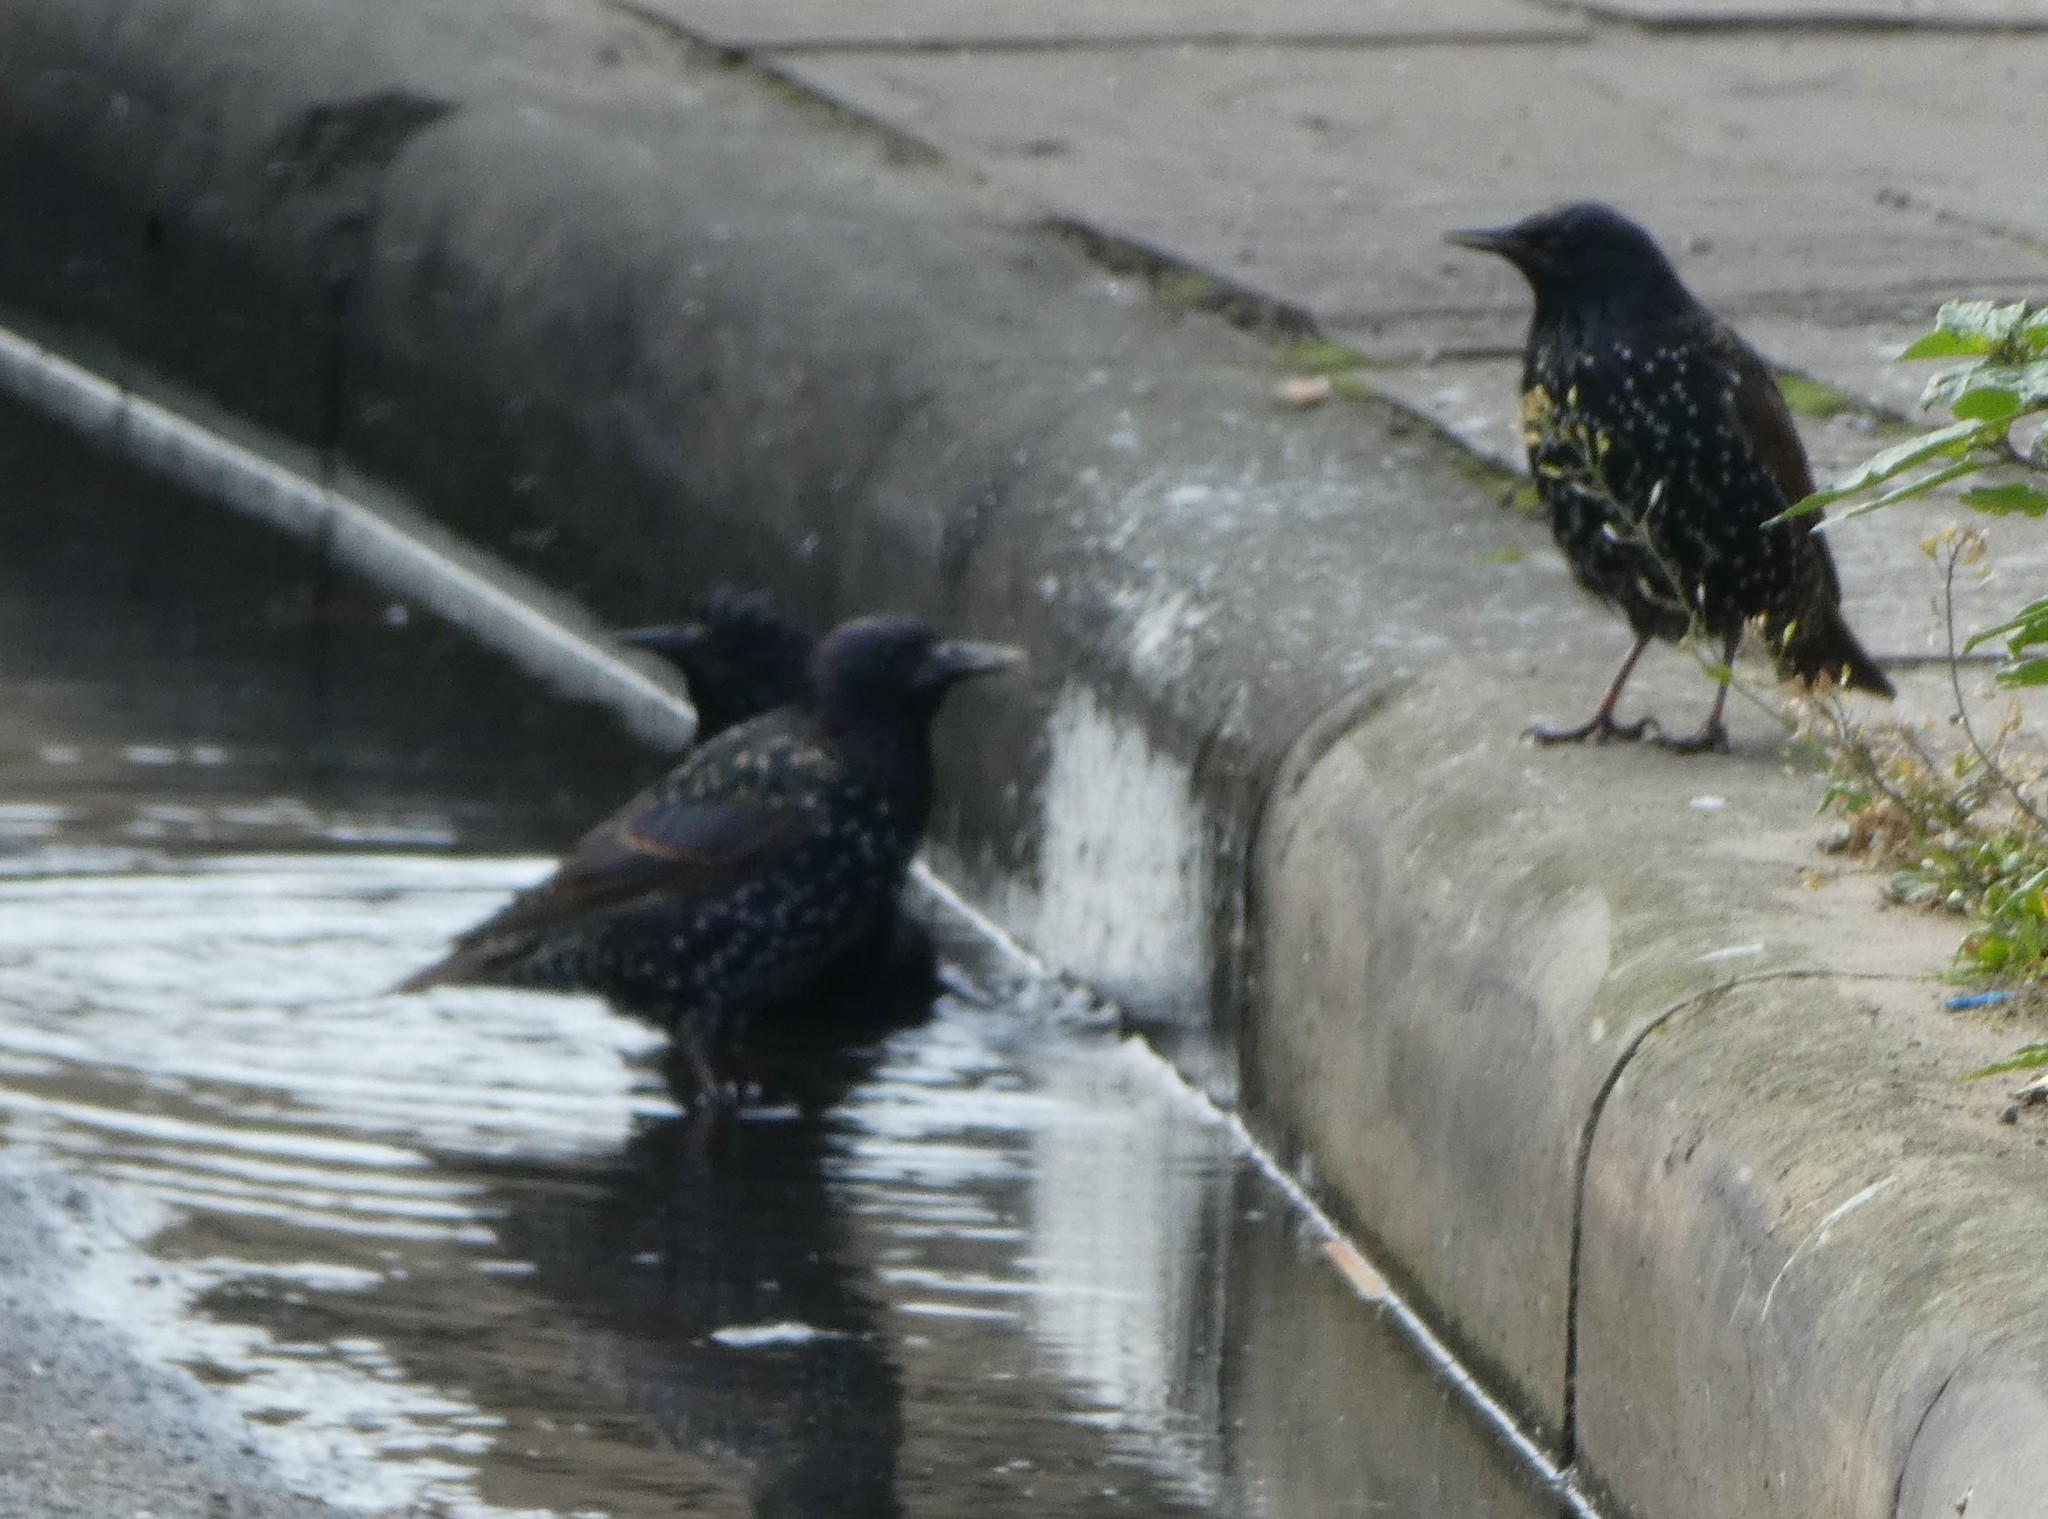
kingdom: Animalia
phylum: Chordata
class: Aves
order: Passeriformes
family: Sturnidae
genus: Sturnus
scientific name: Sturnus vulgaris
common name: Common starling
